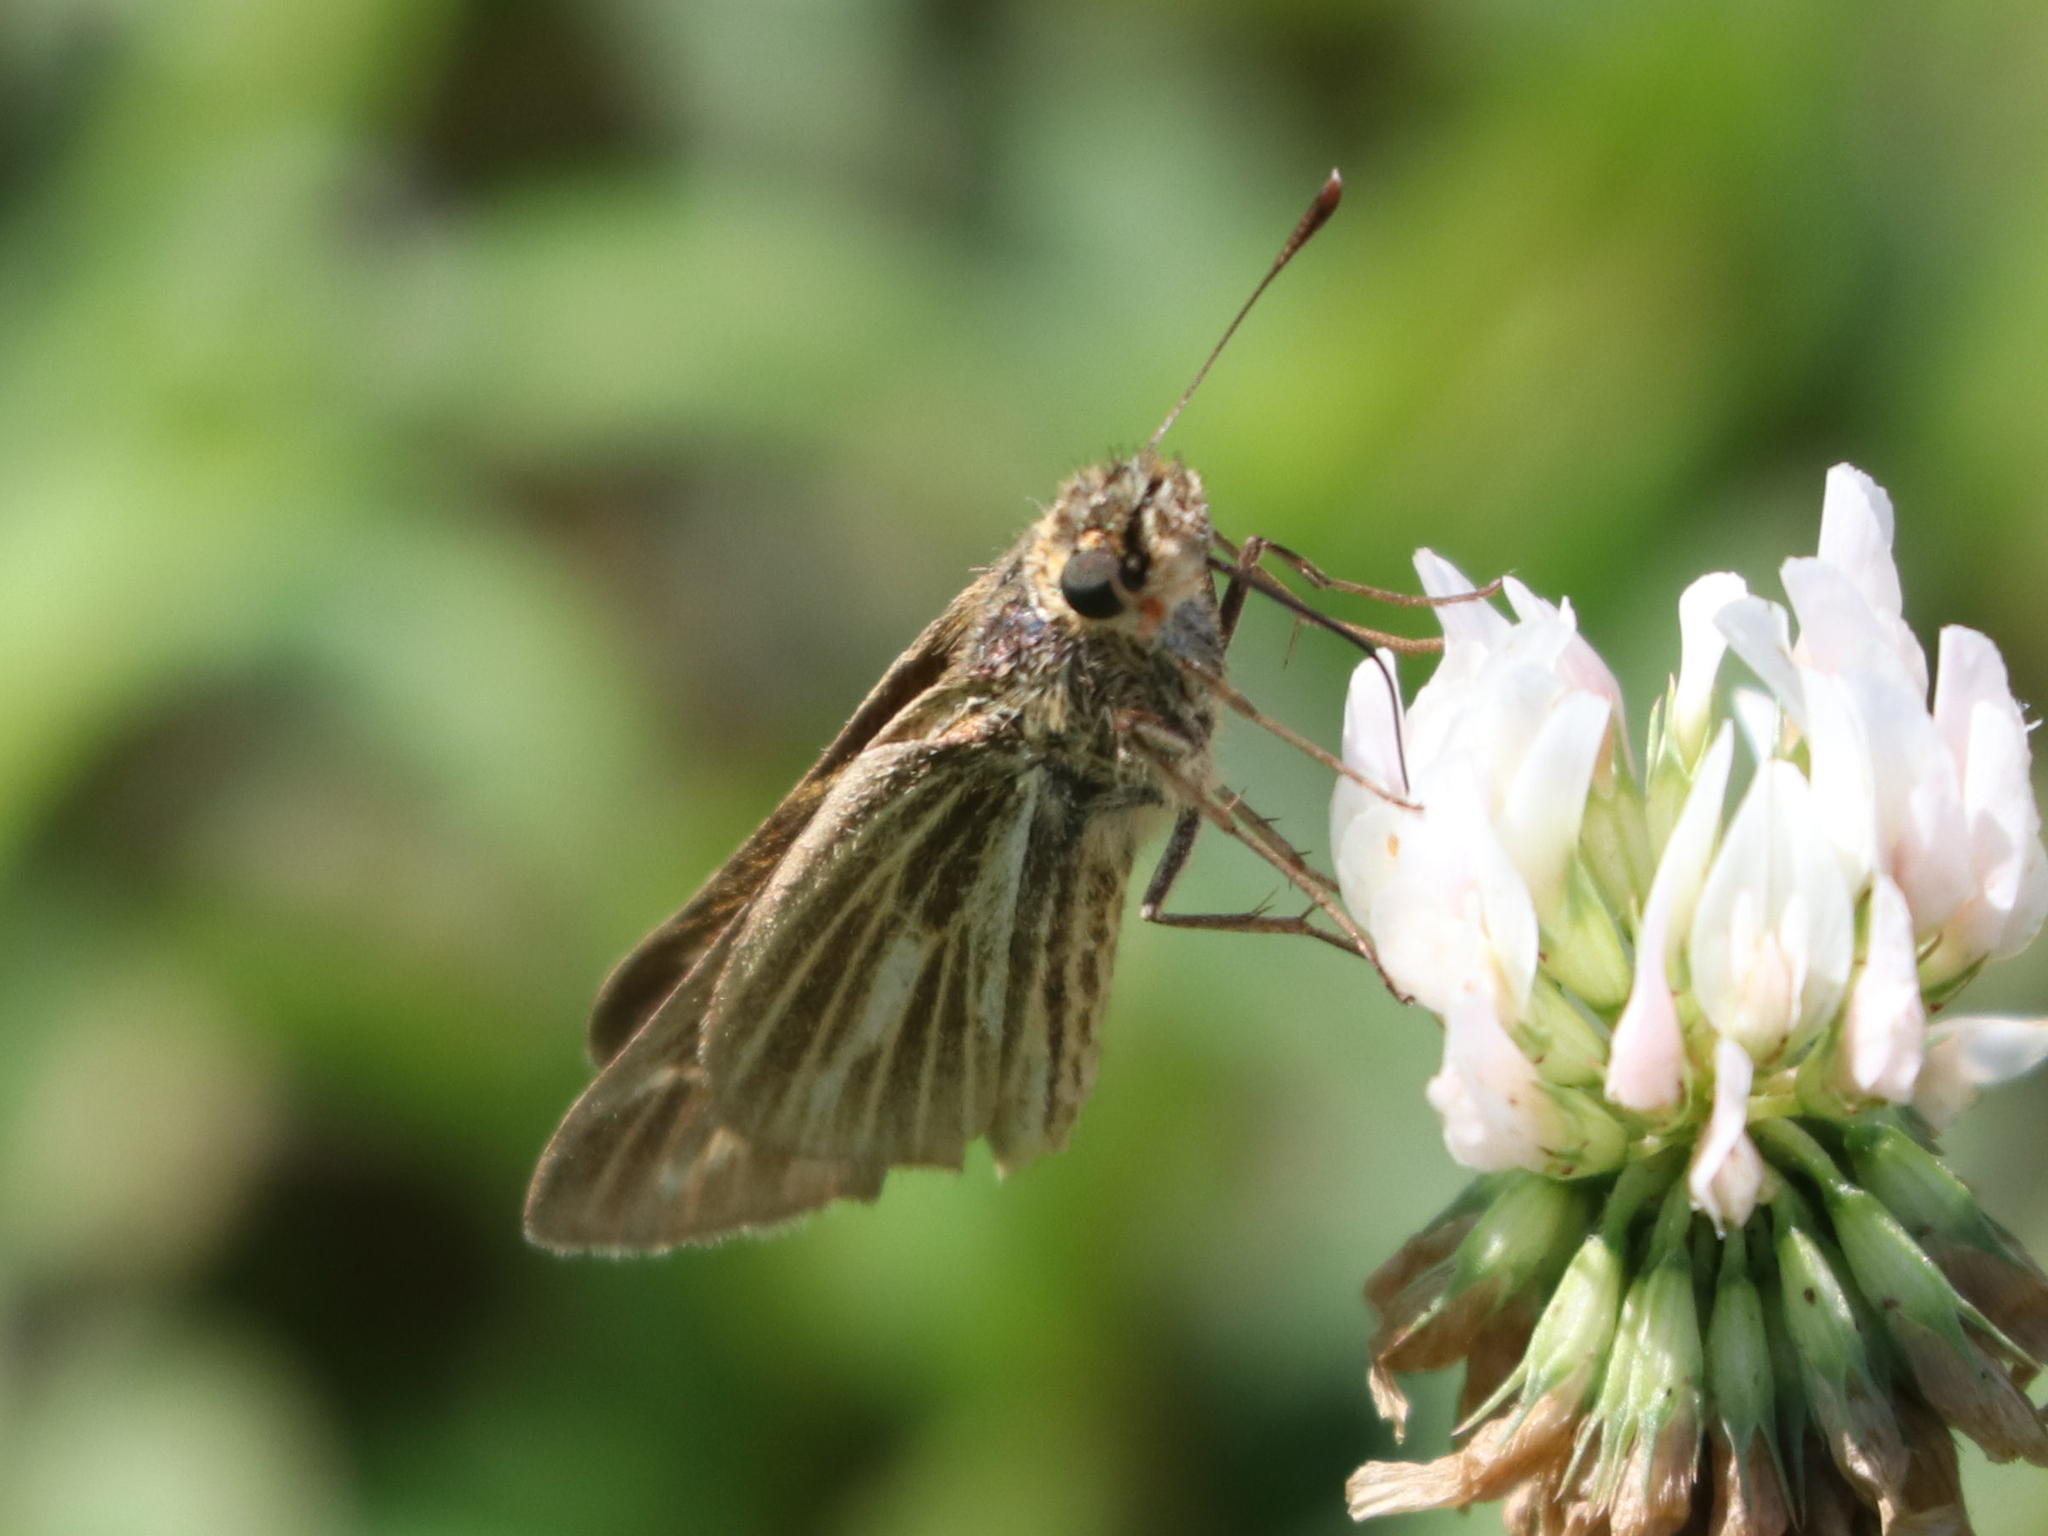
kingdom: Animalia
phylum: Arthropoda
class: Insecta
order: Lepidoptera
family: Hesperiidae
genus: Panoquina
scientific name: Panoquina panoquin
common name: Salt marsh skipper
